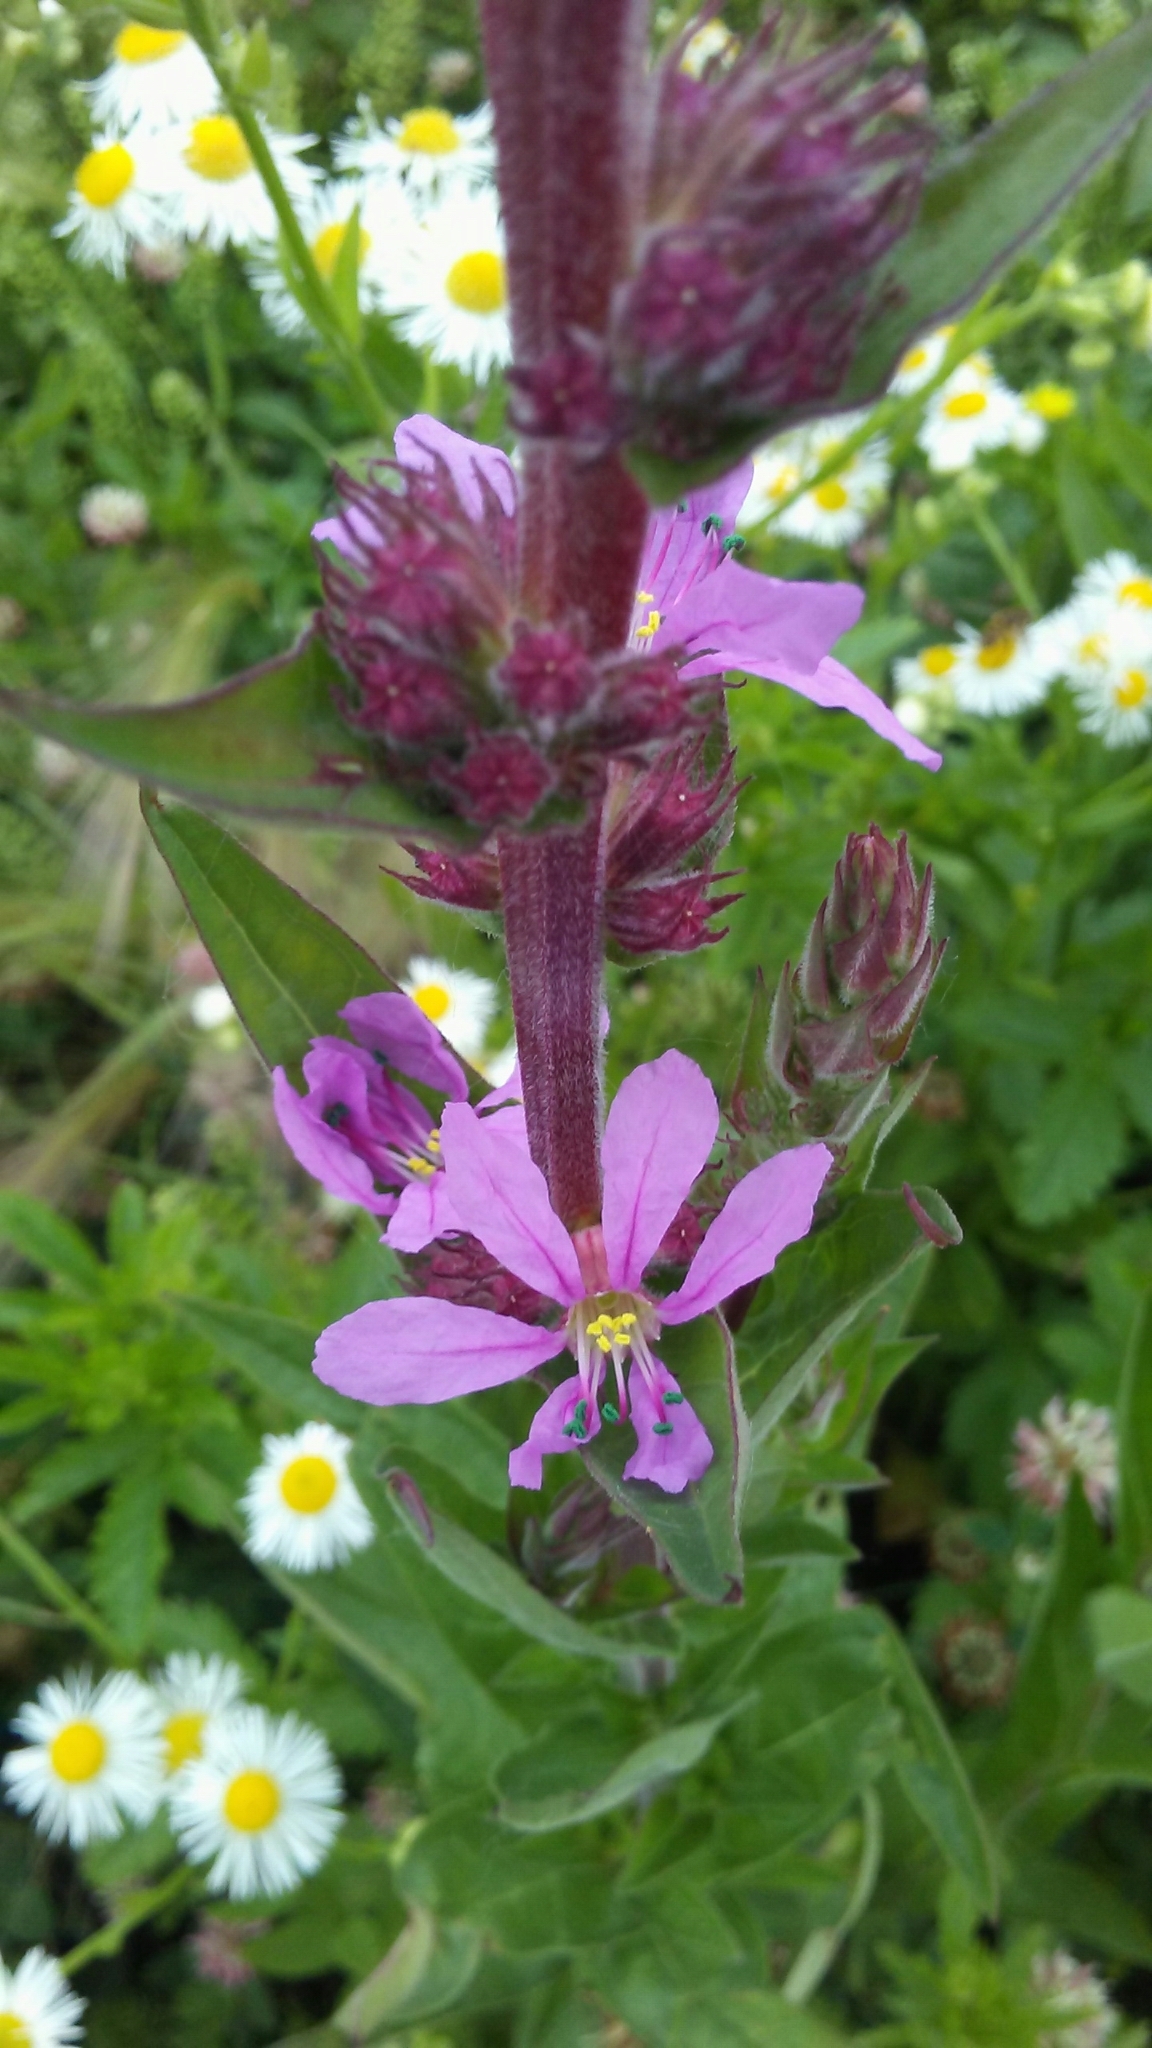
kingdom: Plantae
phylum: Tracheophyta
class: Magnoliopsida
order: Myrtales
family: Lythraceae
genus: Lythrum
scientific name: Lythrum salicaria
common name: Purple loosestrife
